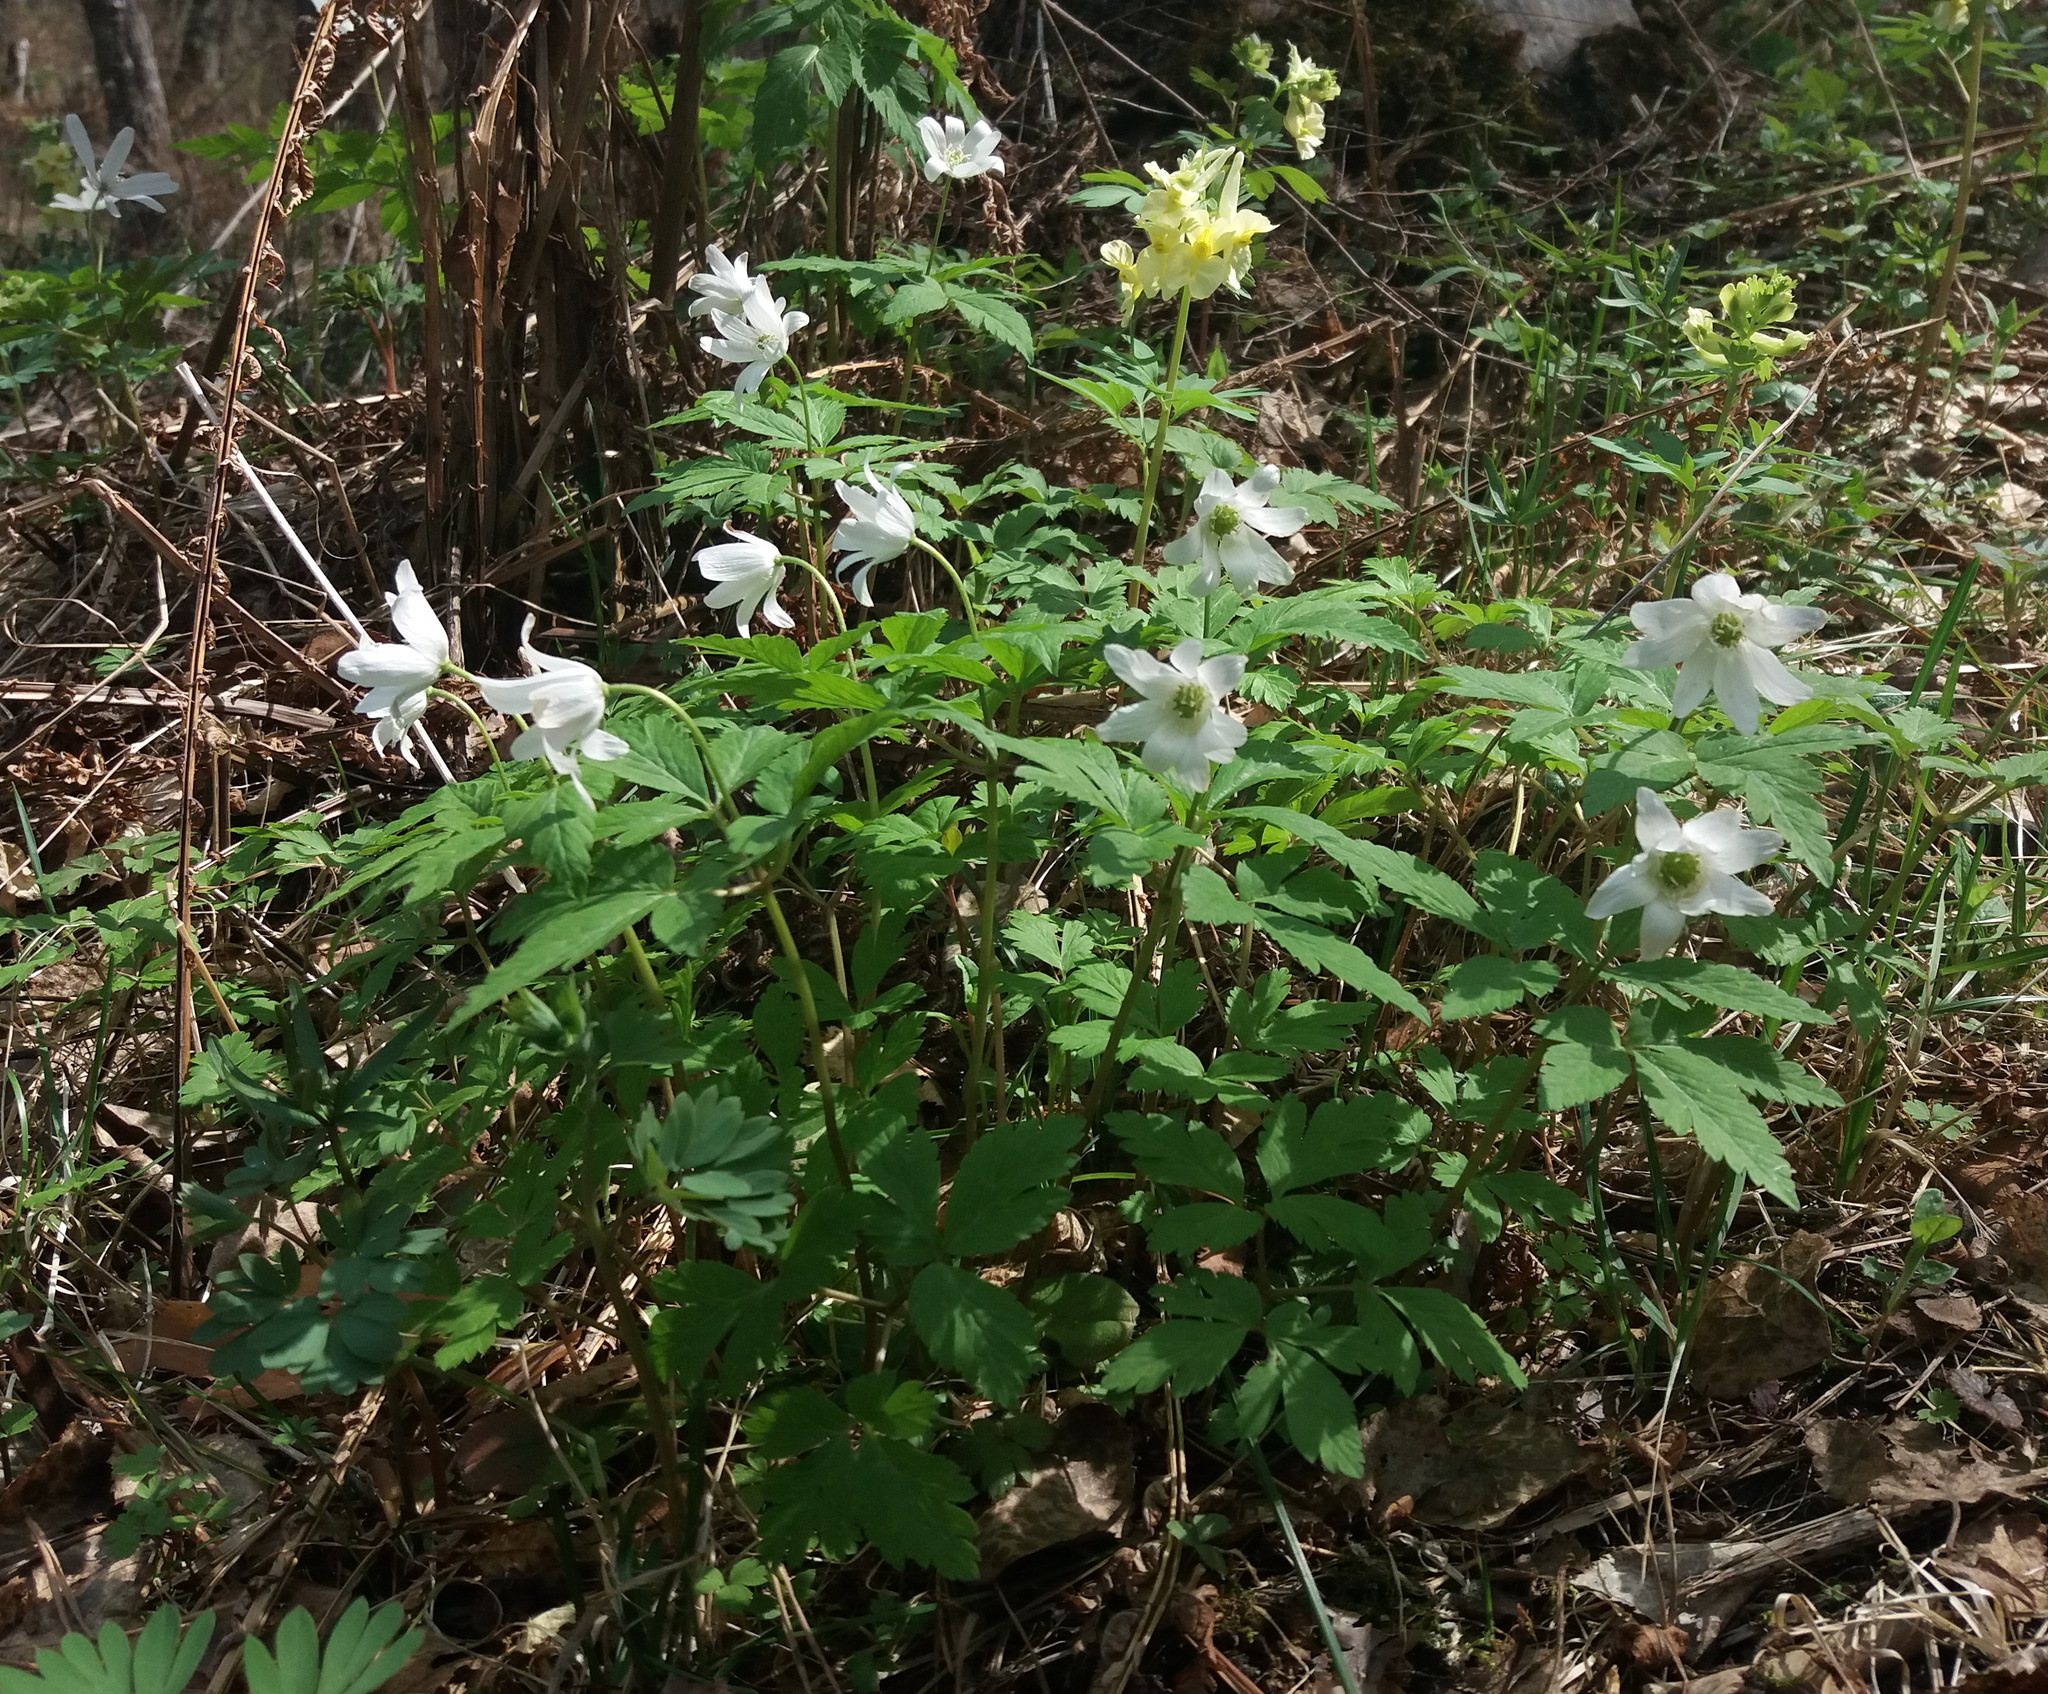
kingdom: Plantae
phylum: Tracheophyta
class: Magnoliopsida
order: Ranunculales
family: Ranunculaceae
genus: Anemone
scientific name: Anemone altaica
